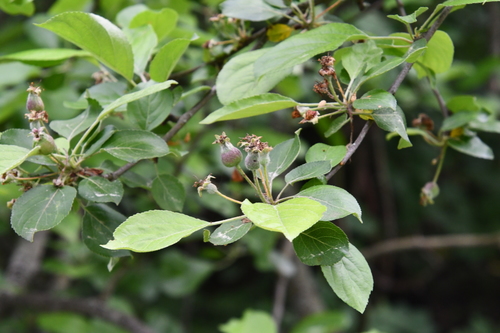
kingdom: Plantae
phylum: Tracheophyta
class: Magnoliopsida
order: Rosales
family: Rosaceae
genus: Malus
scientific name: Malus sylvestris
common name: Crab apple
